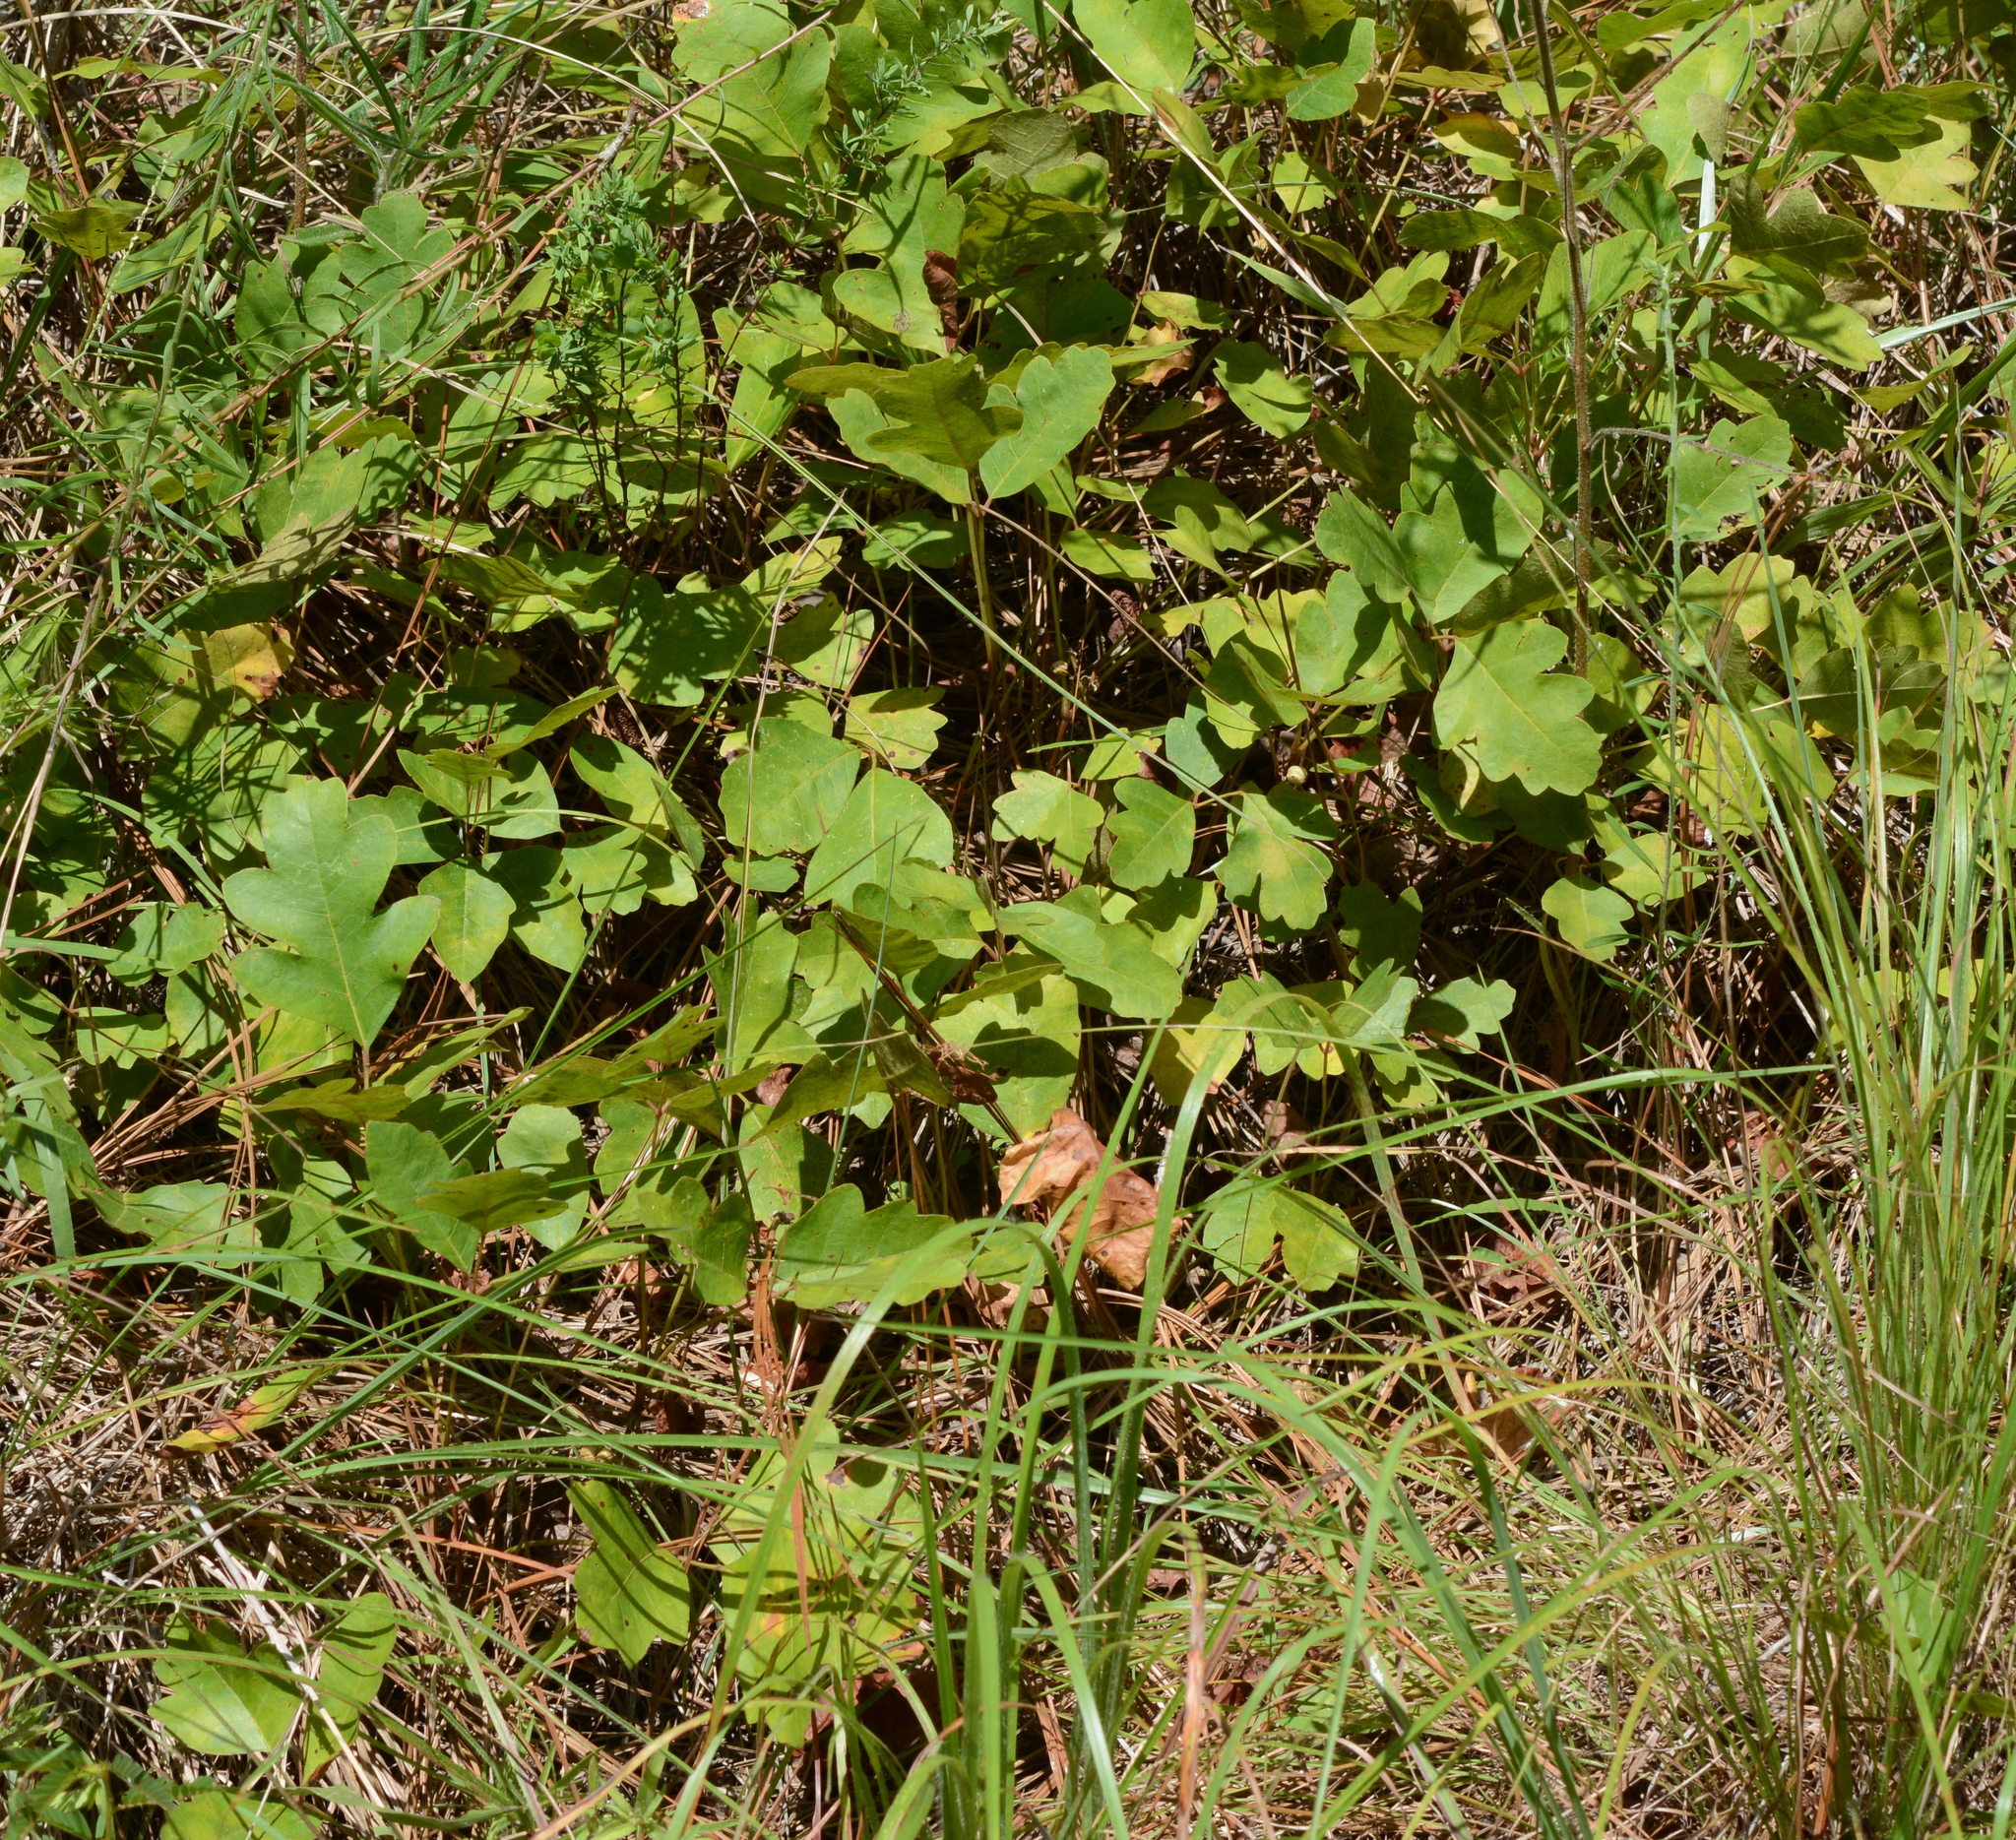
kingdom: Plantae
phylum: Tracheophyta
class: Magnoliopsida
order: Sapindales
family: Anacardiaceae
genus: Toxicodendron
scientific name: Toxicodendron pubescens
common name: Eastern poison-oak
